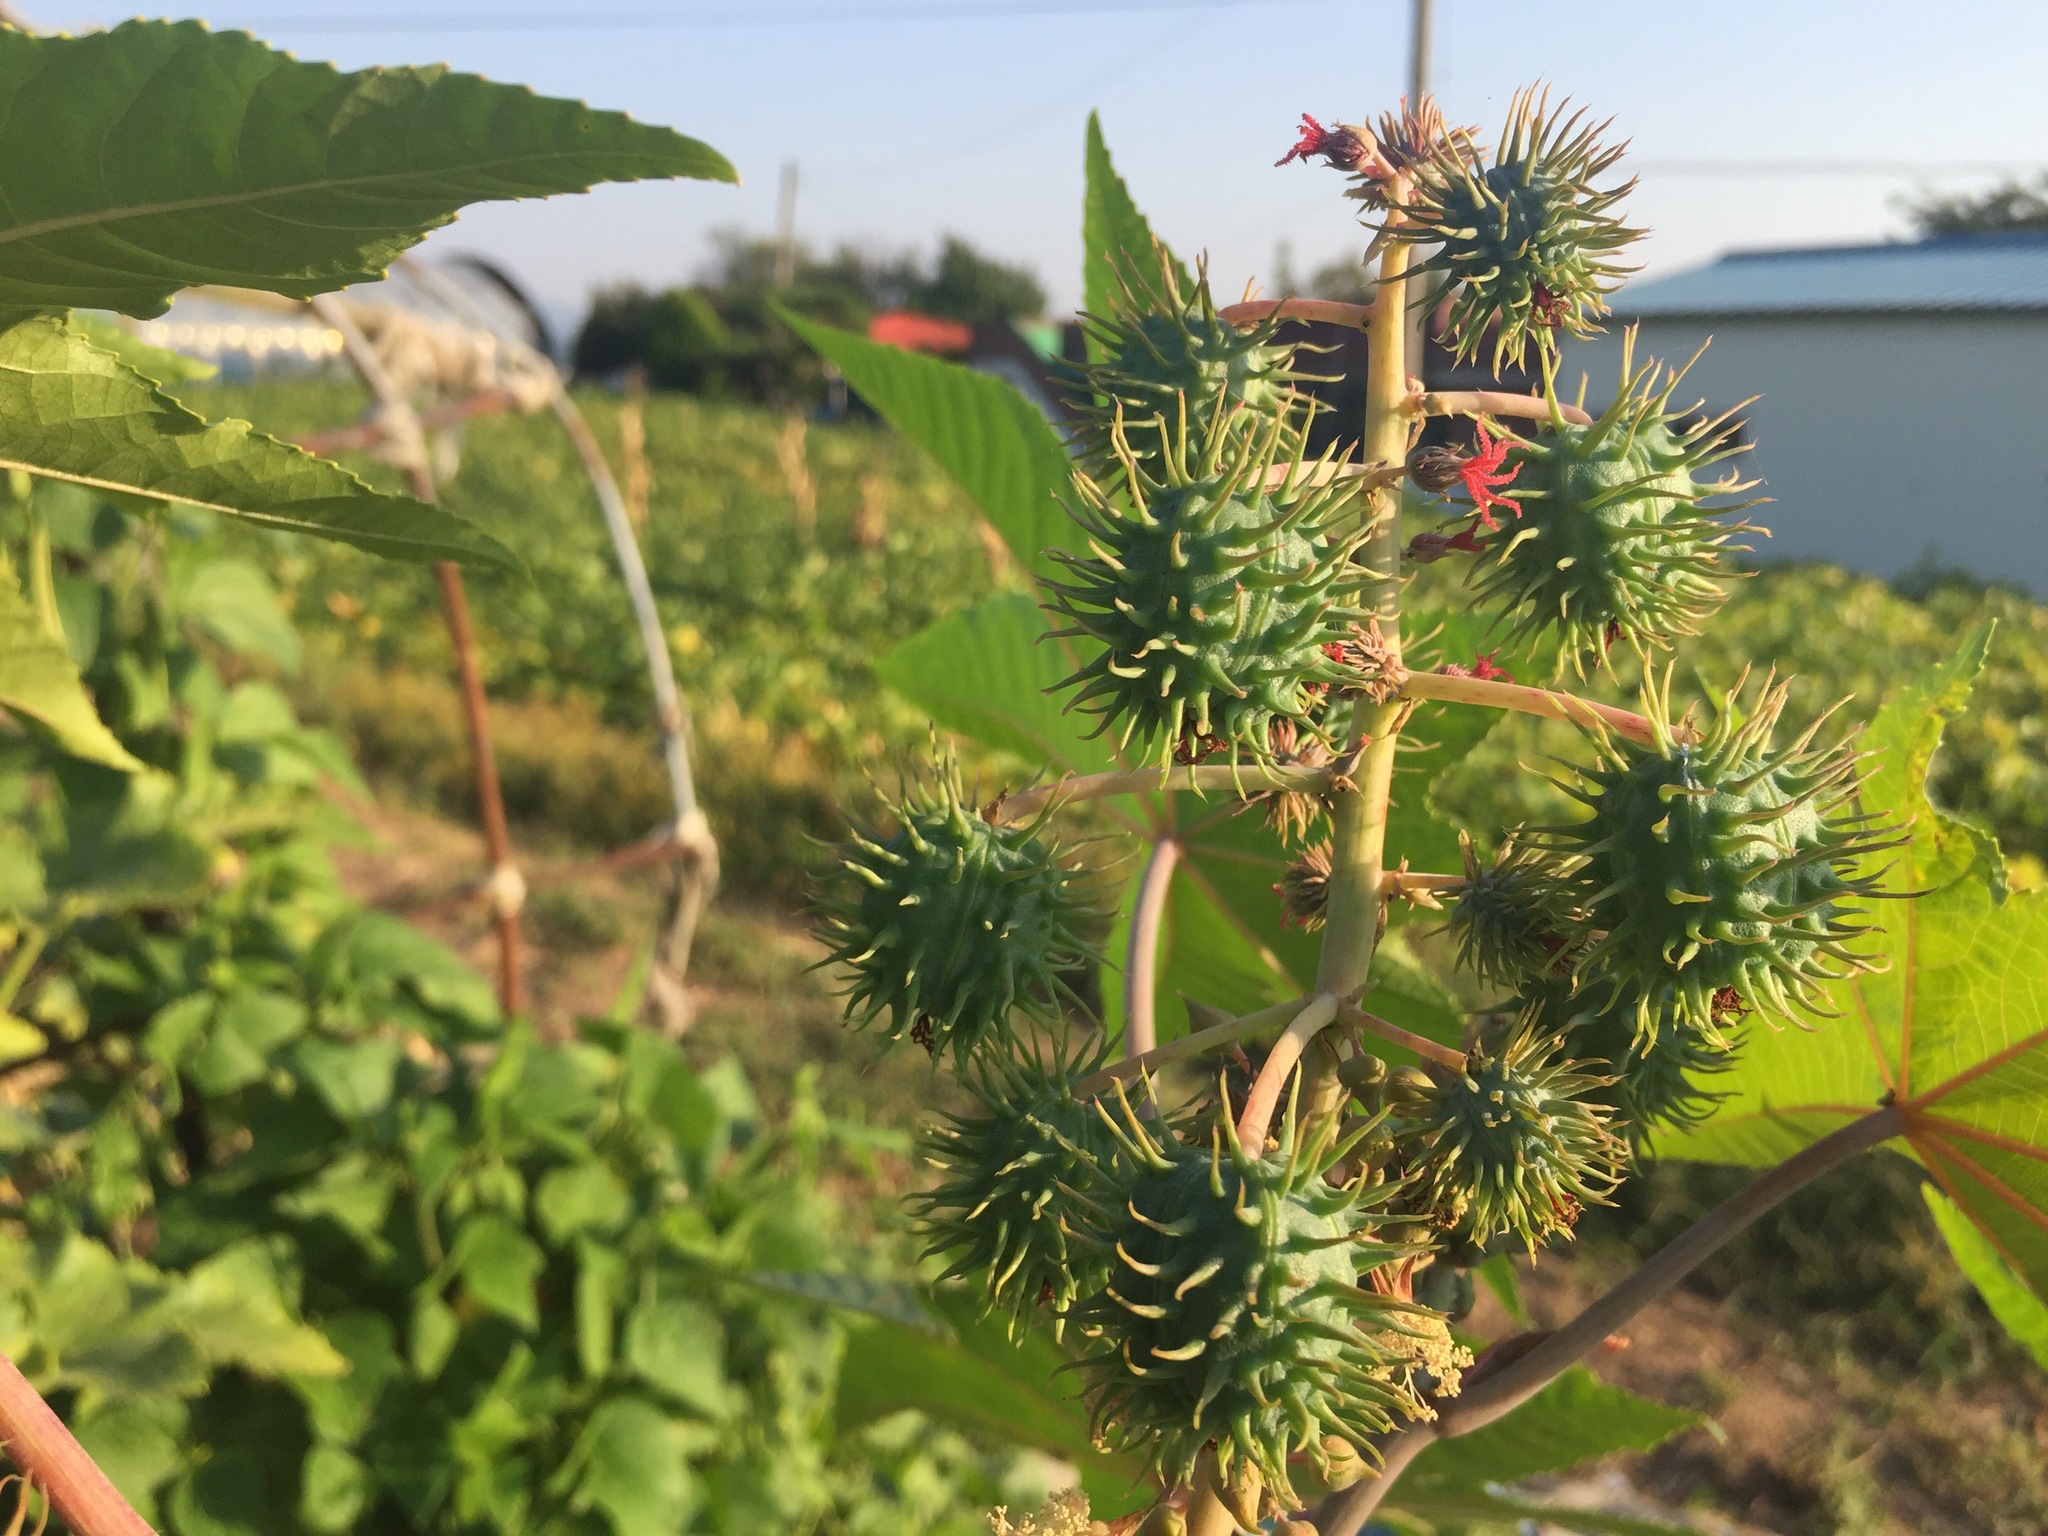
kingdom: Plantae
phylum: Tracheophyta
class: Magnoliopsida
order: Malpighiales
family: Euphorbiaceae
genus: Ricinus
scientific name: Ricinus communis
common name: Castor-oil-plant
